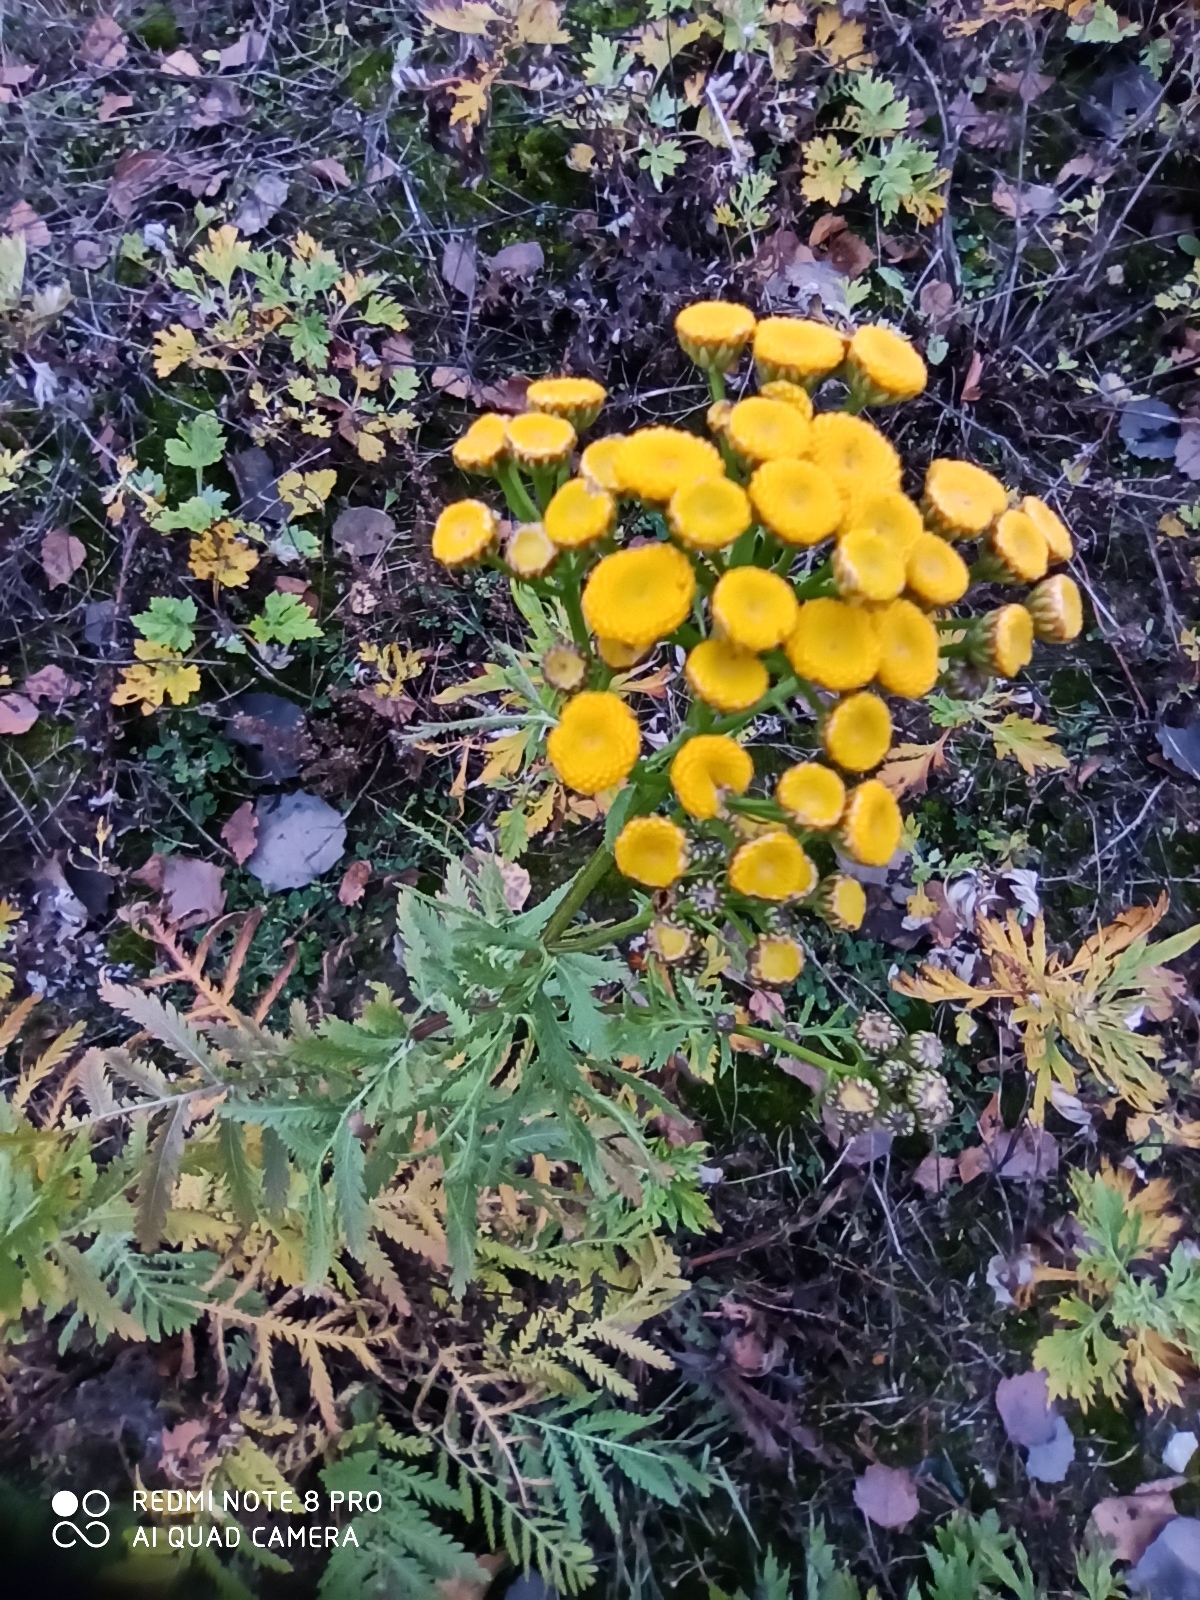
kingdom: Plantae
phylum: Tracheophyta
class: Magnoliopsida
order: Asterales
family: Asteraceae
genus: Tanacetum
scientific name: Tanacetum vulgare
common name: Common tansy
